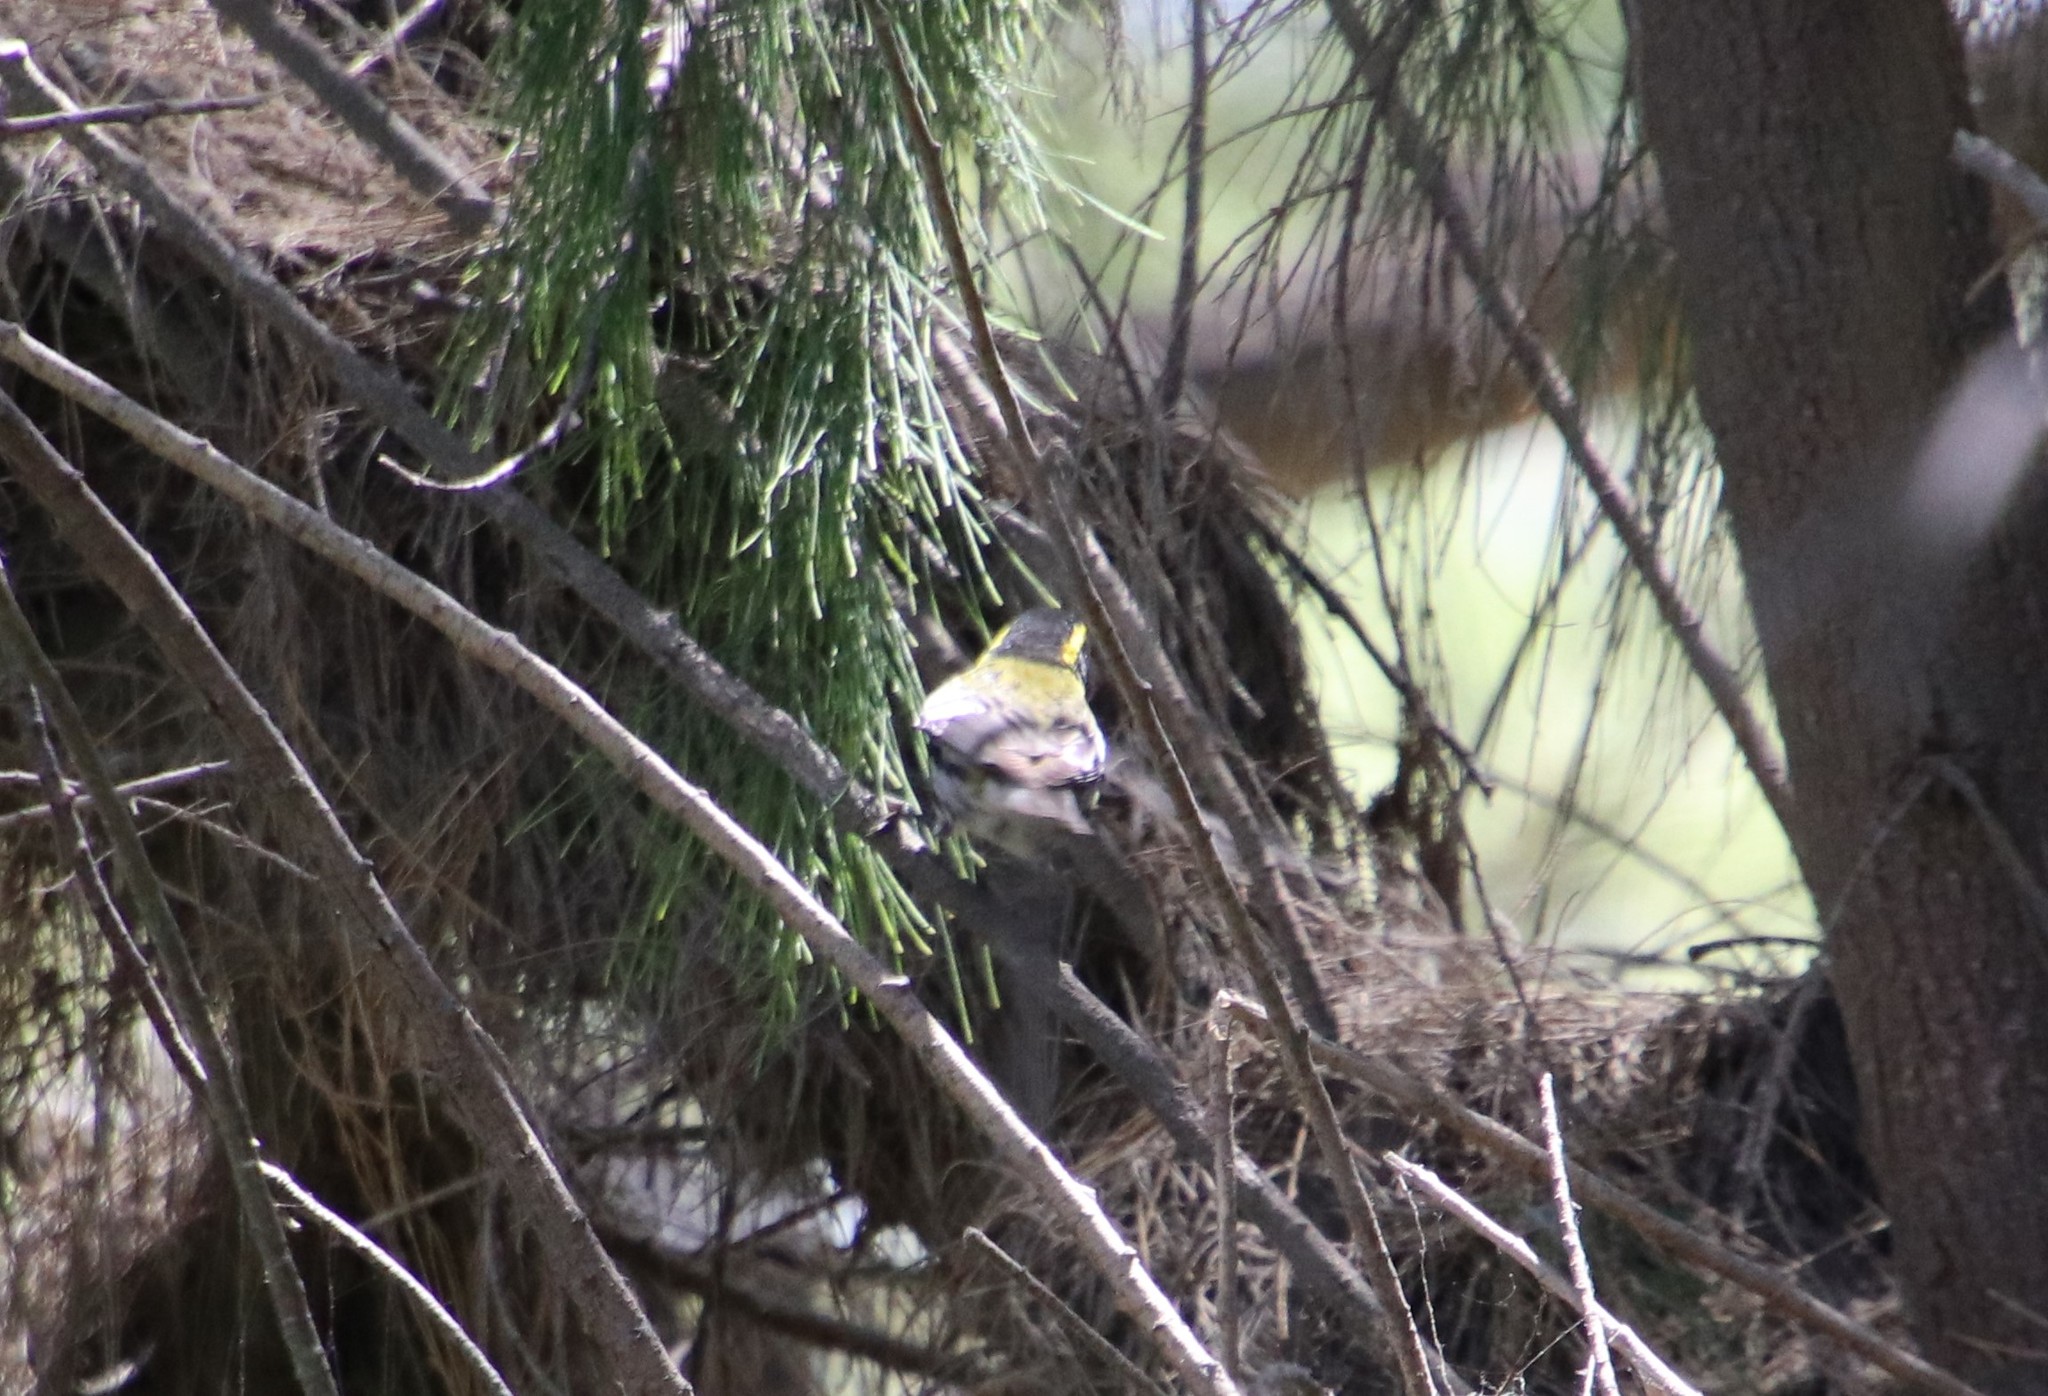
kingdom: Animalia
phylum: Chordata
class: Aves
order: Passeriformes
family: Parulidae
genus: Setophaga
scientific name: Setophaga townsendi
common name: Townsend's warbler
